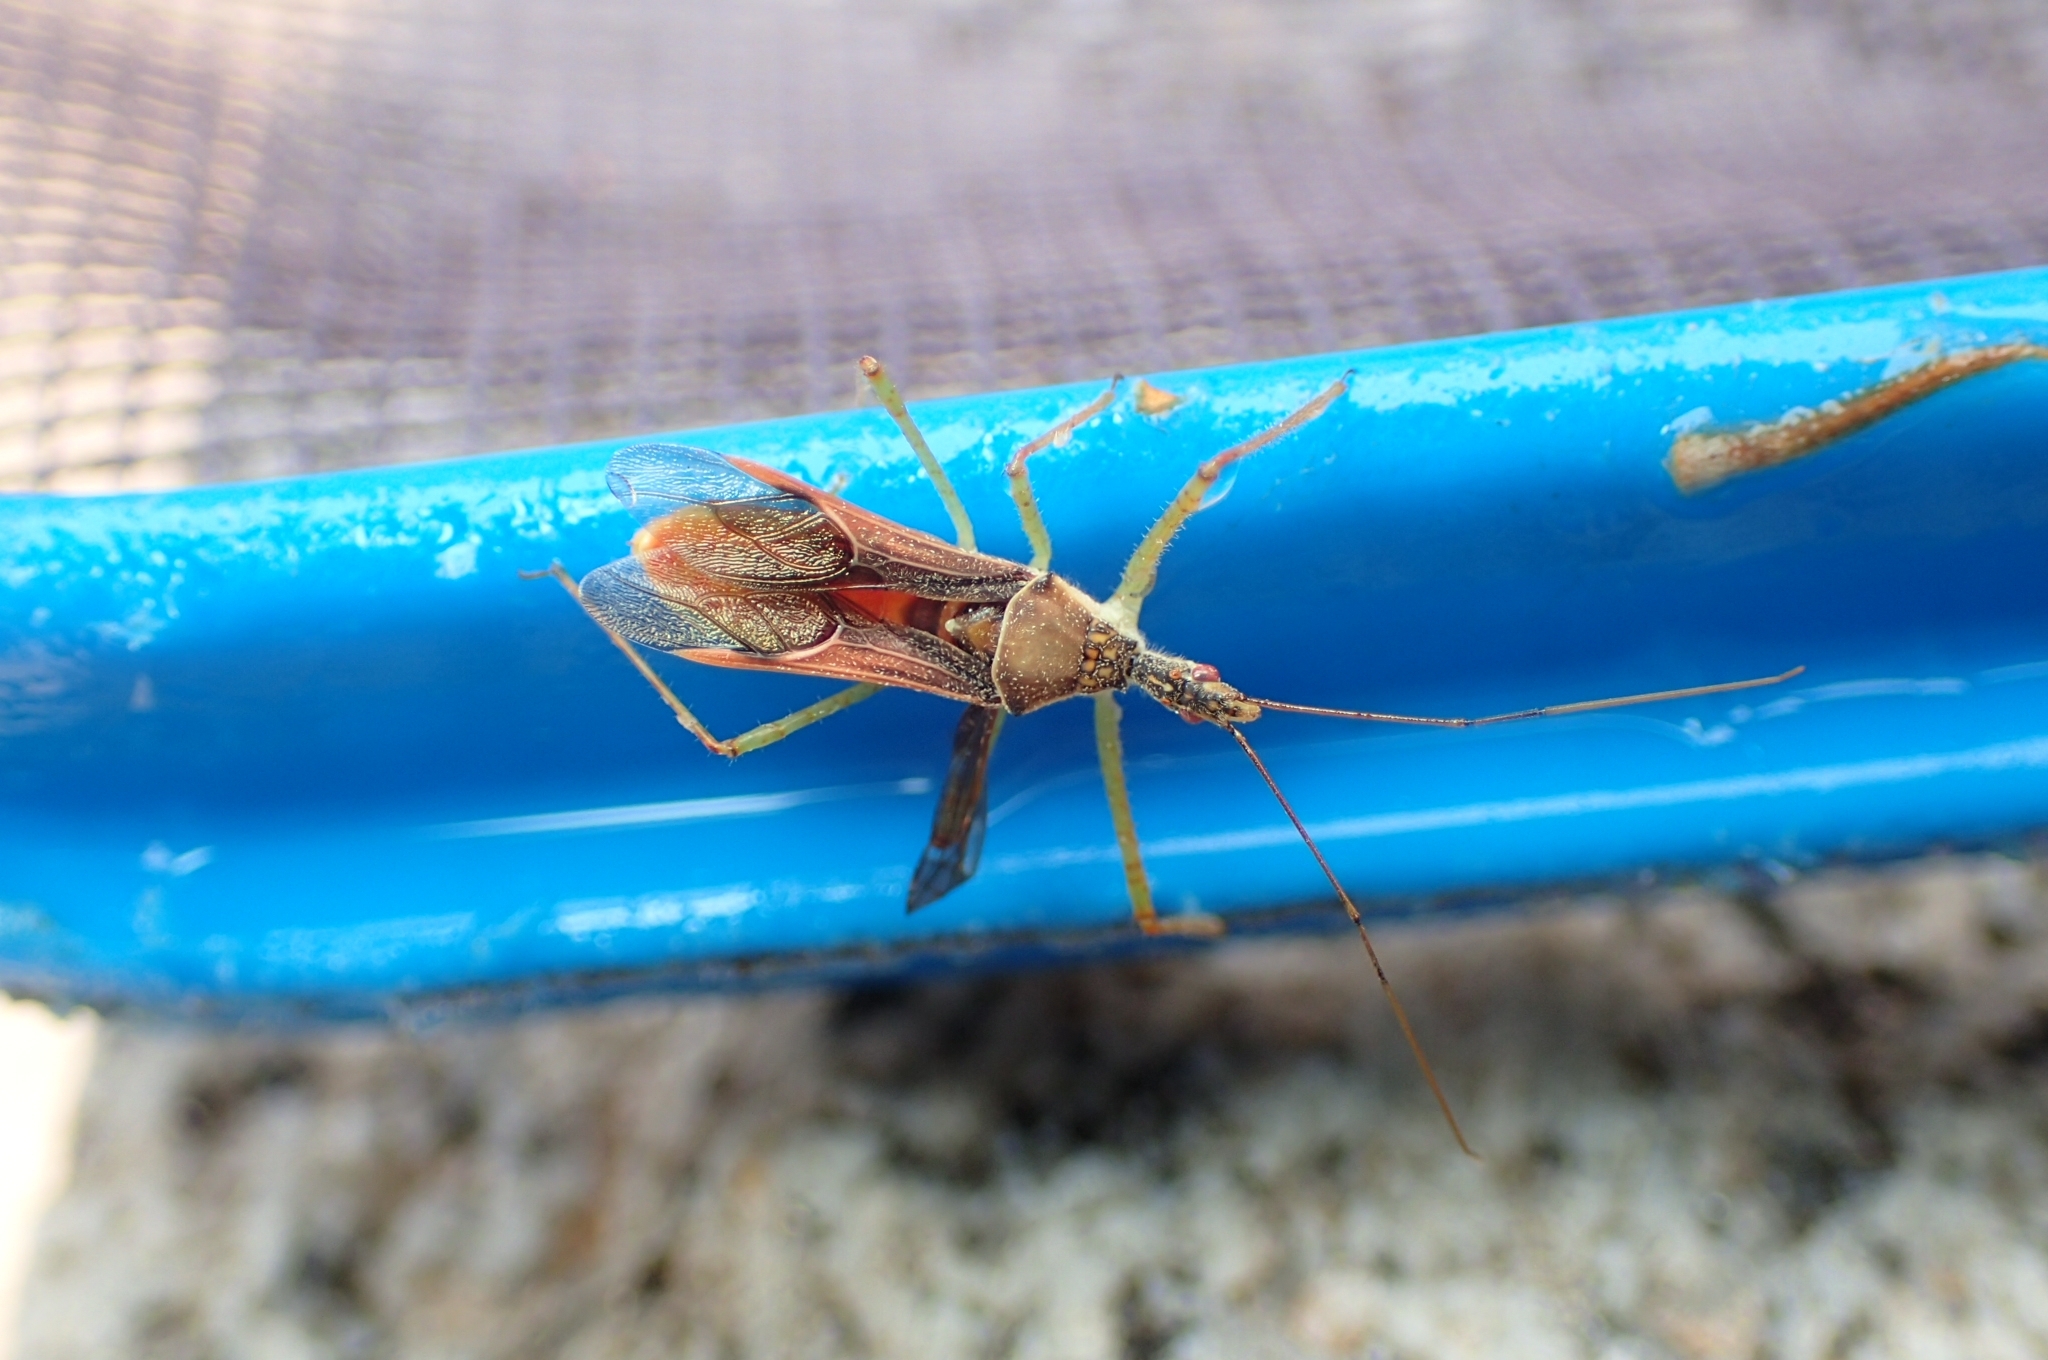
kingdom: Animalia
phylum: Arthropoda
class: Insecta
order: Hemiptera
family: Reduviidae
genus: Zelus
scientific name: Zelus renardii
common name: Assassin bug
